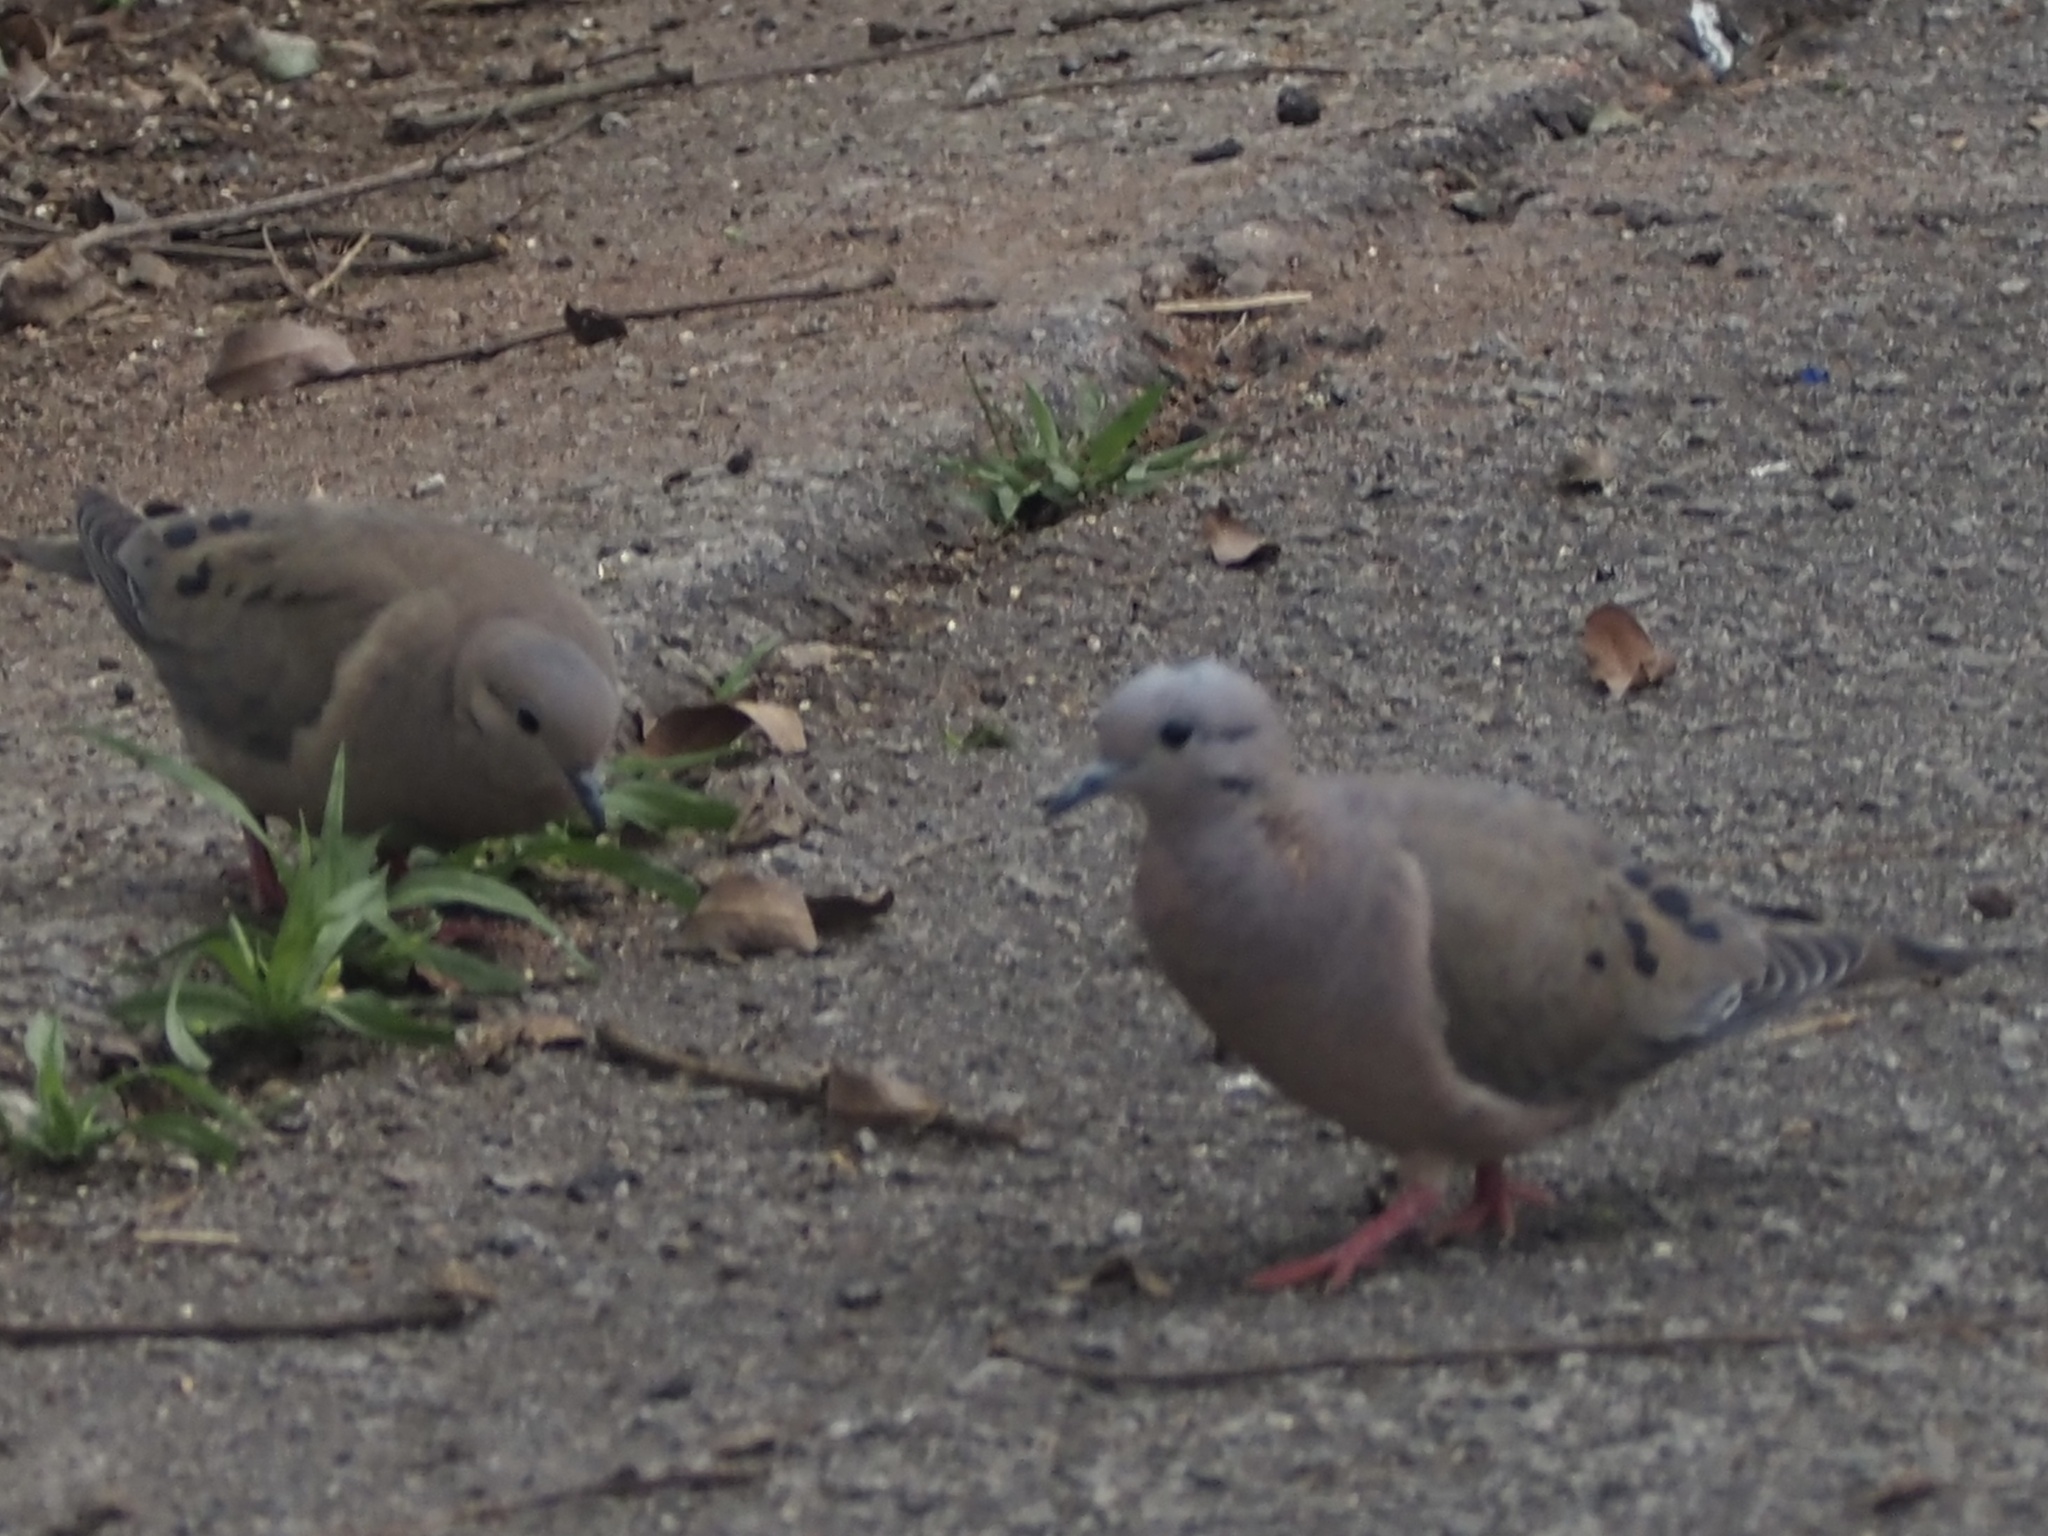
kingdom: Animalia
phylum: Chordata
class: Aves
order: Columbiformes
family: Columbidae
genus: Zenaida
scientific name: Zenaida auriculata
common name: Eared dove
